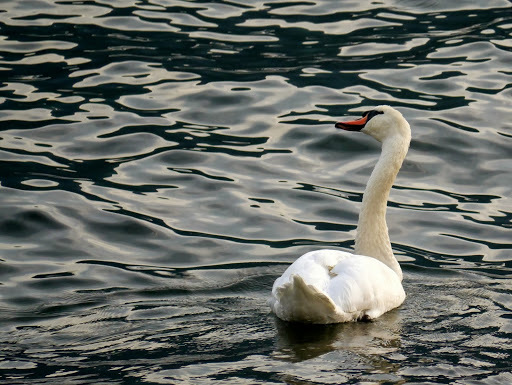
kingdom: Animalia
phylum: Chordata
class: Aves
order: Anseriformes
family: Anatidae
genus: Cygnus
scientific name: Cygnus olor
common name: Mute swan
